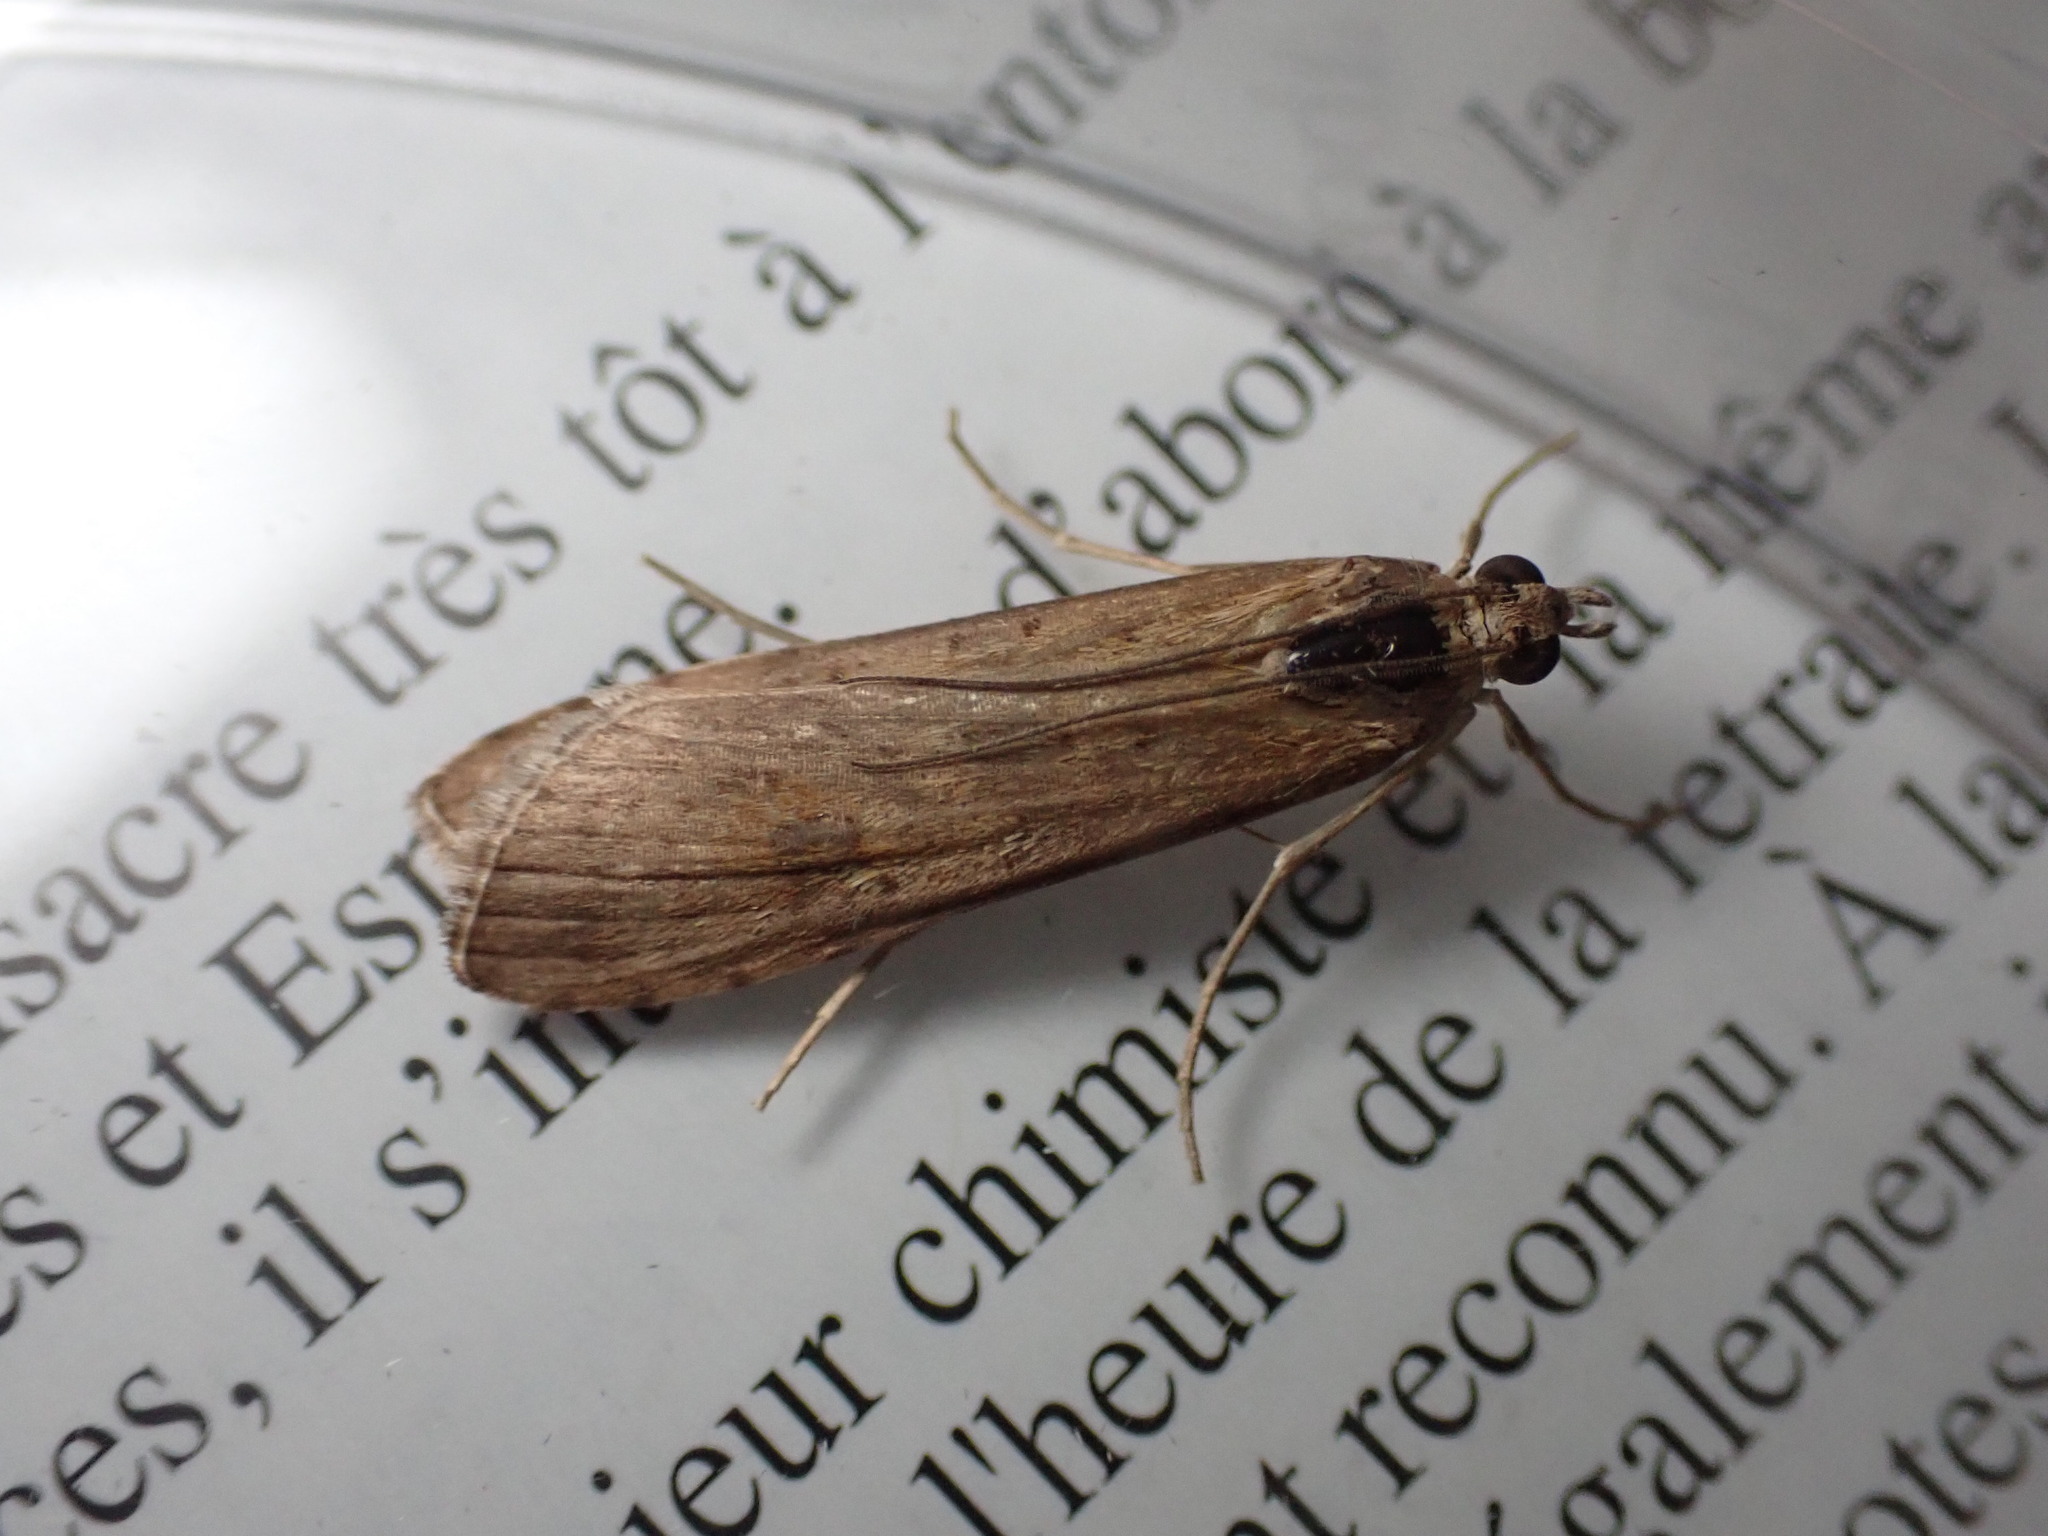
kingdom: Animalia
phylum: Arthropoda
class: Insecta
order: Lepidoptera
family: Crambidae
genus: Nomophila
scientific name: Nomophila noctuella
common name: Rush veneer
